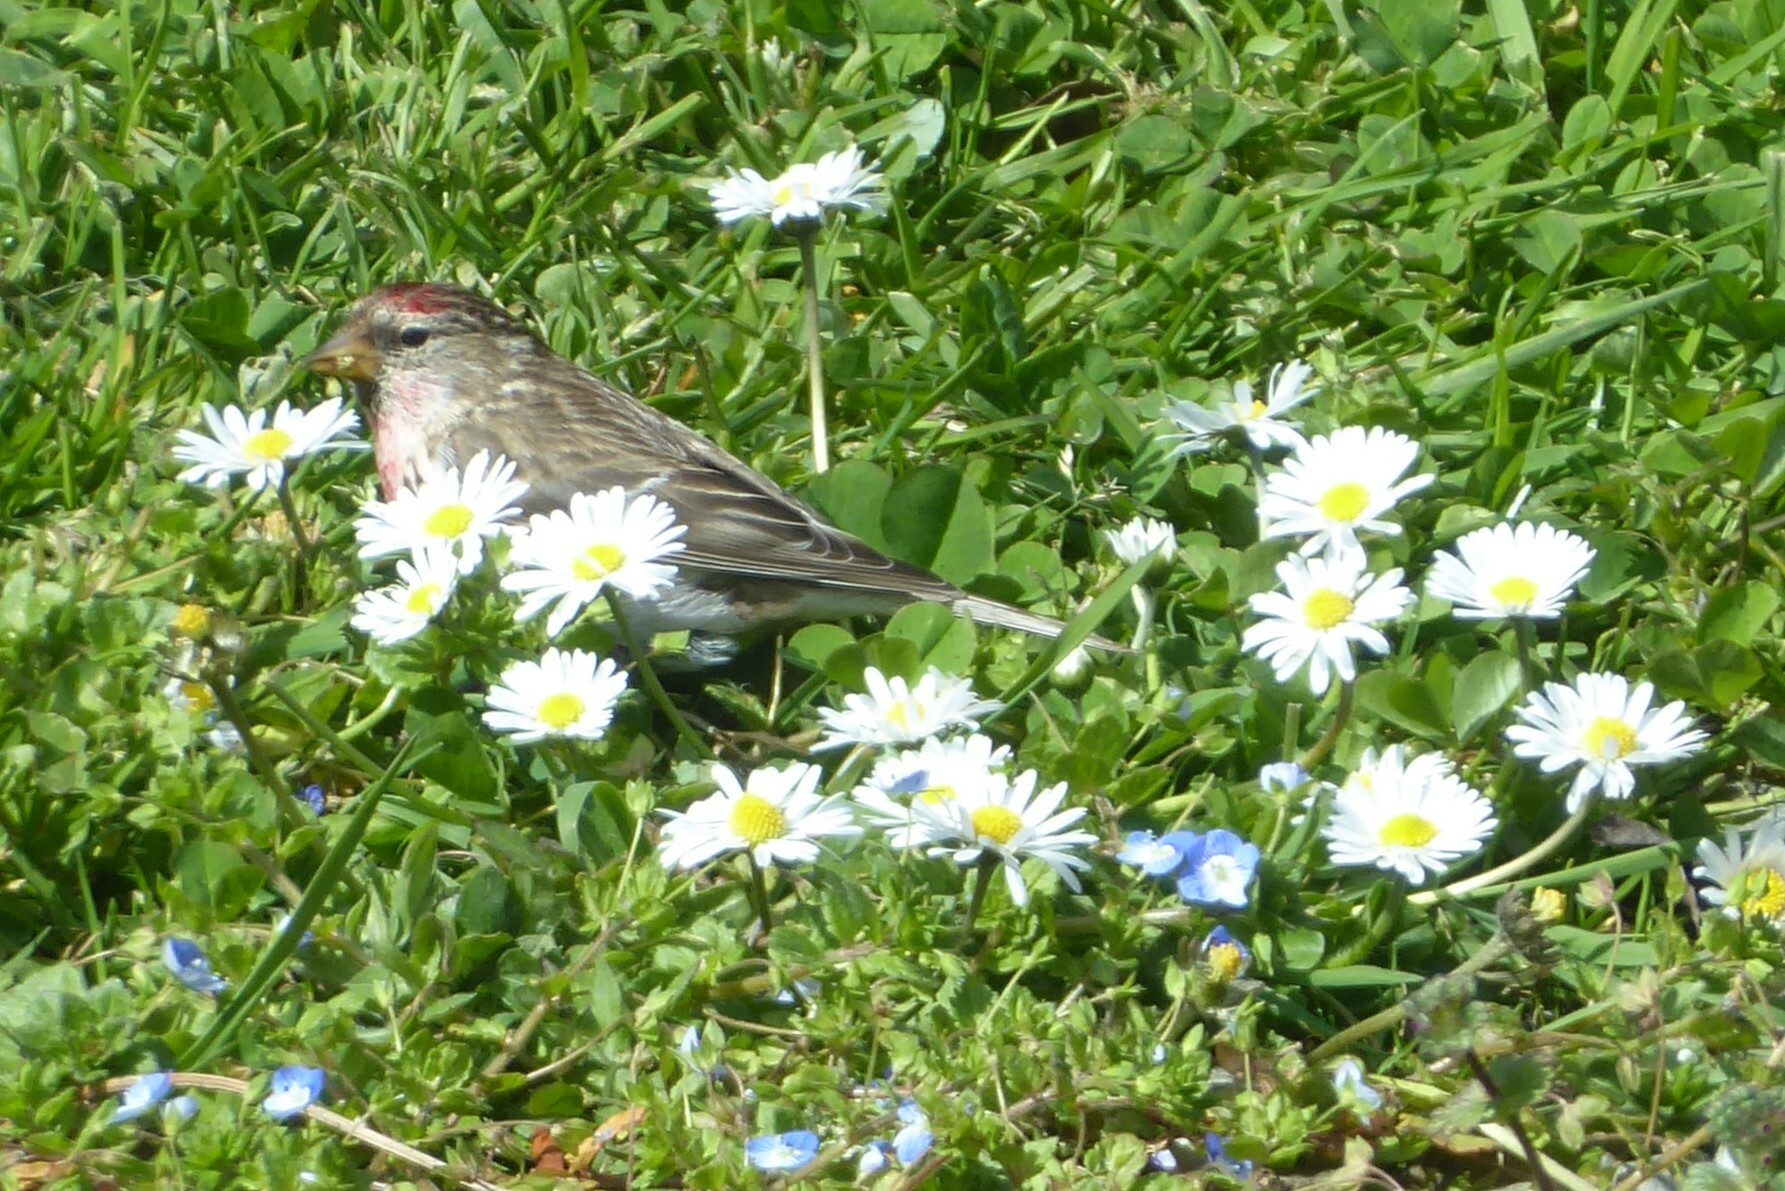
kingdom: Animalia
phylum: Chordata
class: Aves
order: Passeriformes
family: Fringillidae
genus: Acanthis
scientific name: Acanthis flammea
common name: Common redpoll
